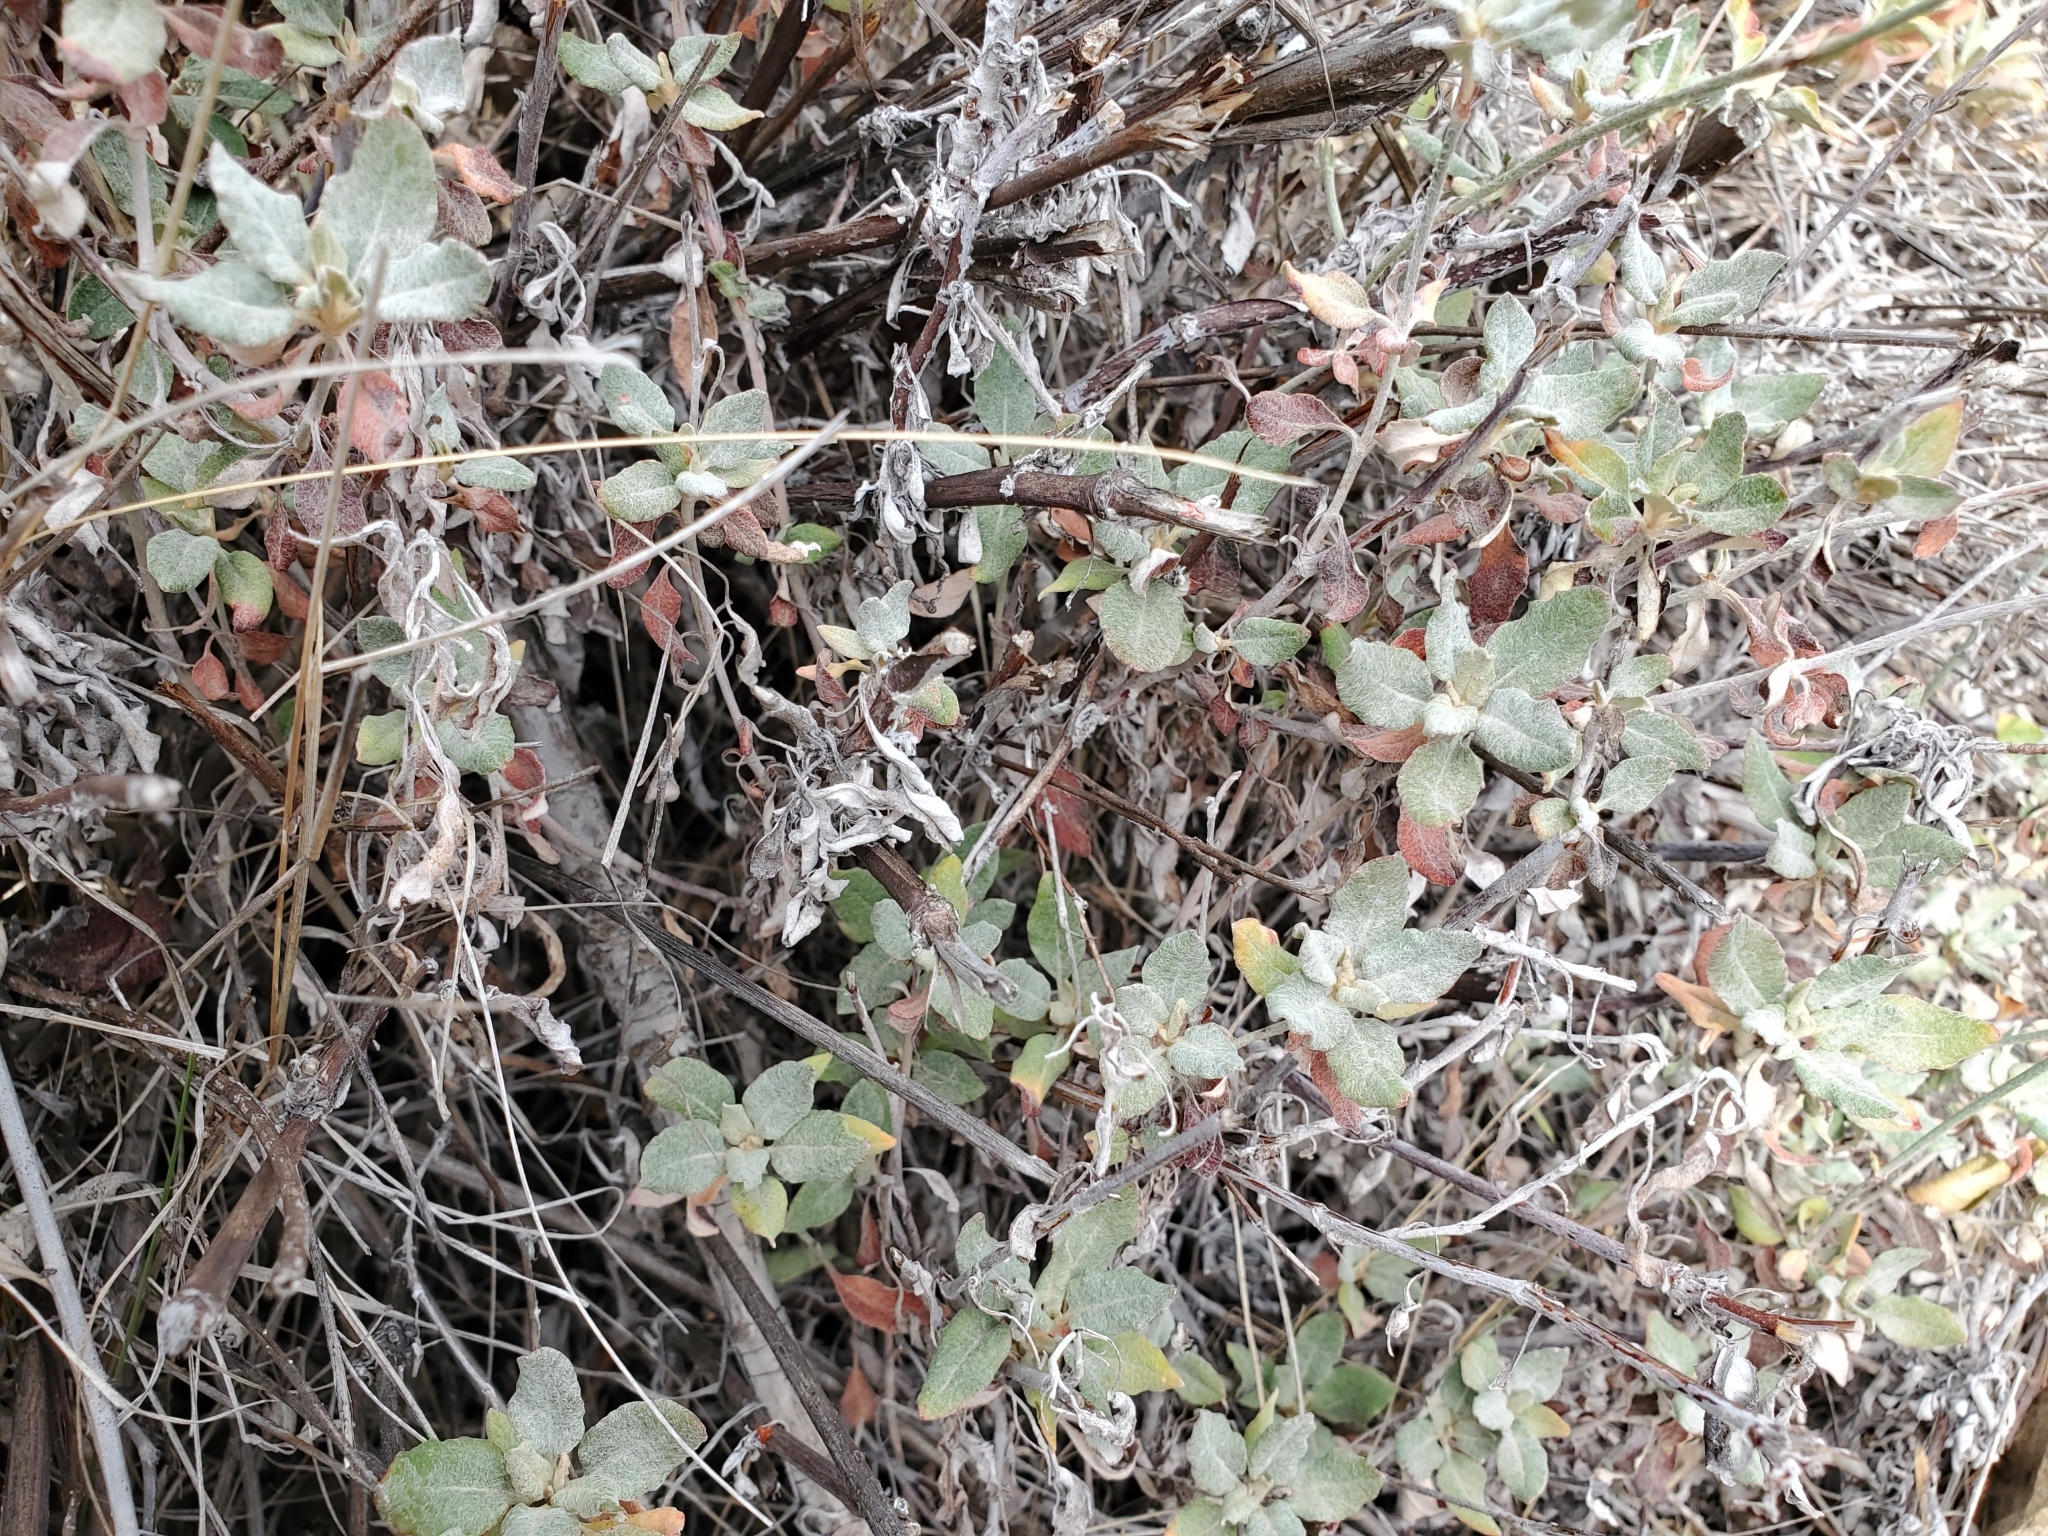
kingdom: Plantae
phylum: Tracheophyta
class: Magnoliopsida
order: Caryophyllales
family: Polygonaceae
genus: Eriogonum
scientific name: Eriogonum elongatum
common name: Long-stem wild buckwheat
